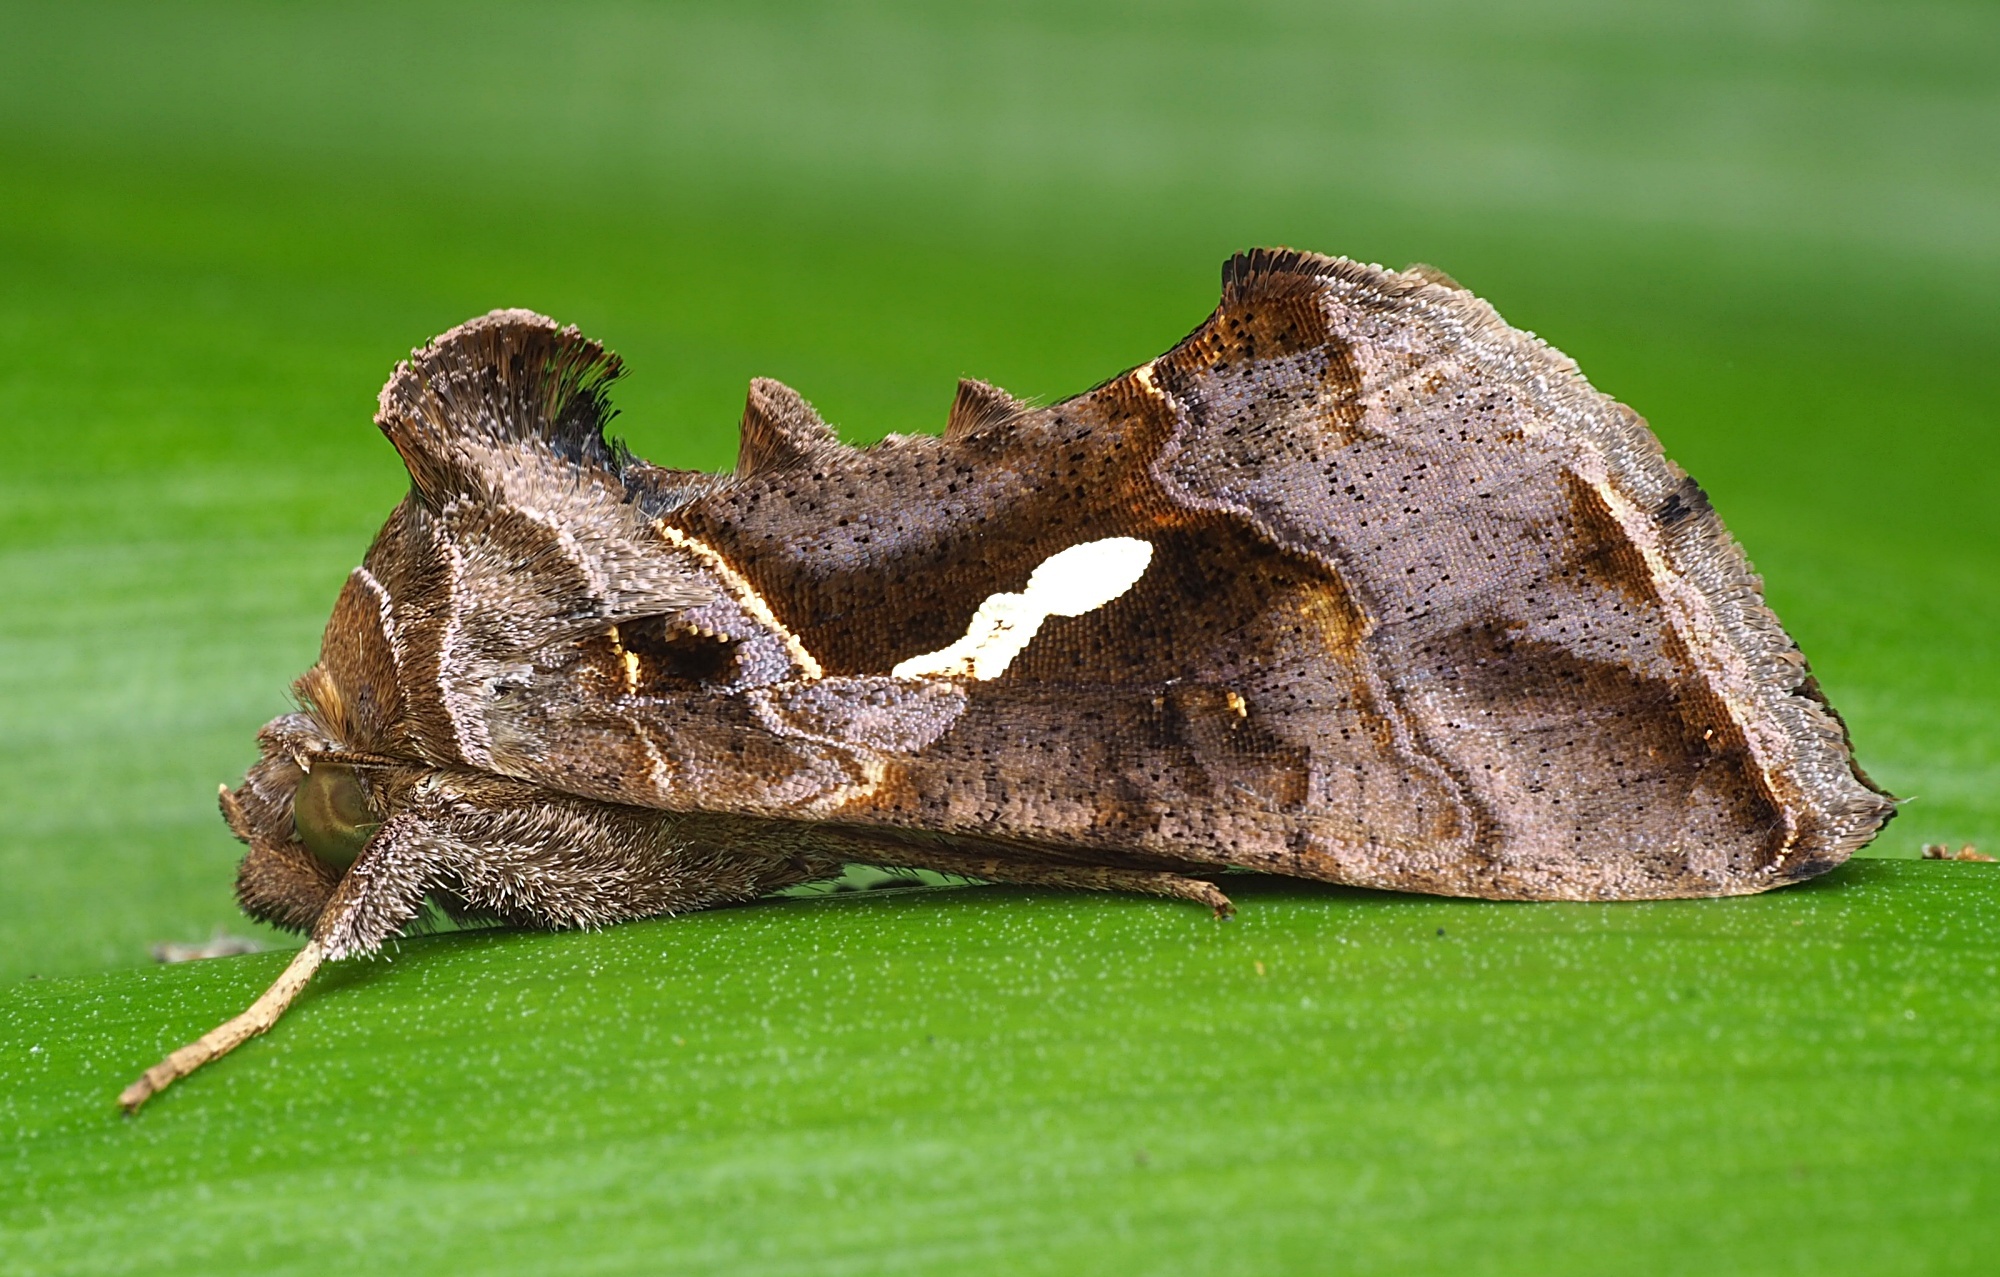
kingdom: Animalia
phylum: Arthropoda
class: Insecta
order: Lepidoptera
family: Noctuidae
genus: Chrysodeixis
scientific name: Chrysodeixis eriosoma
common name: Green garden looper
